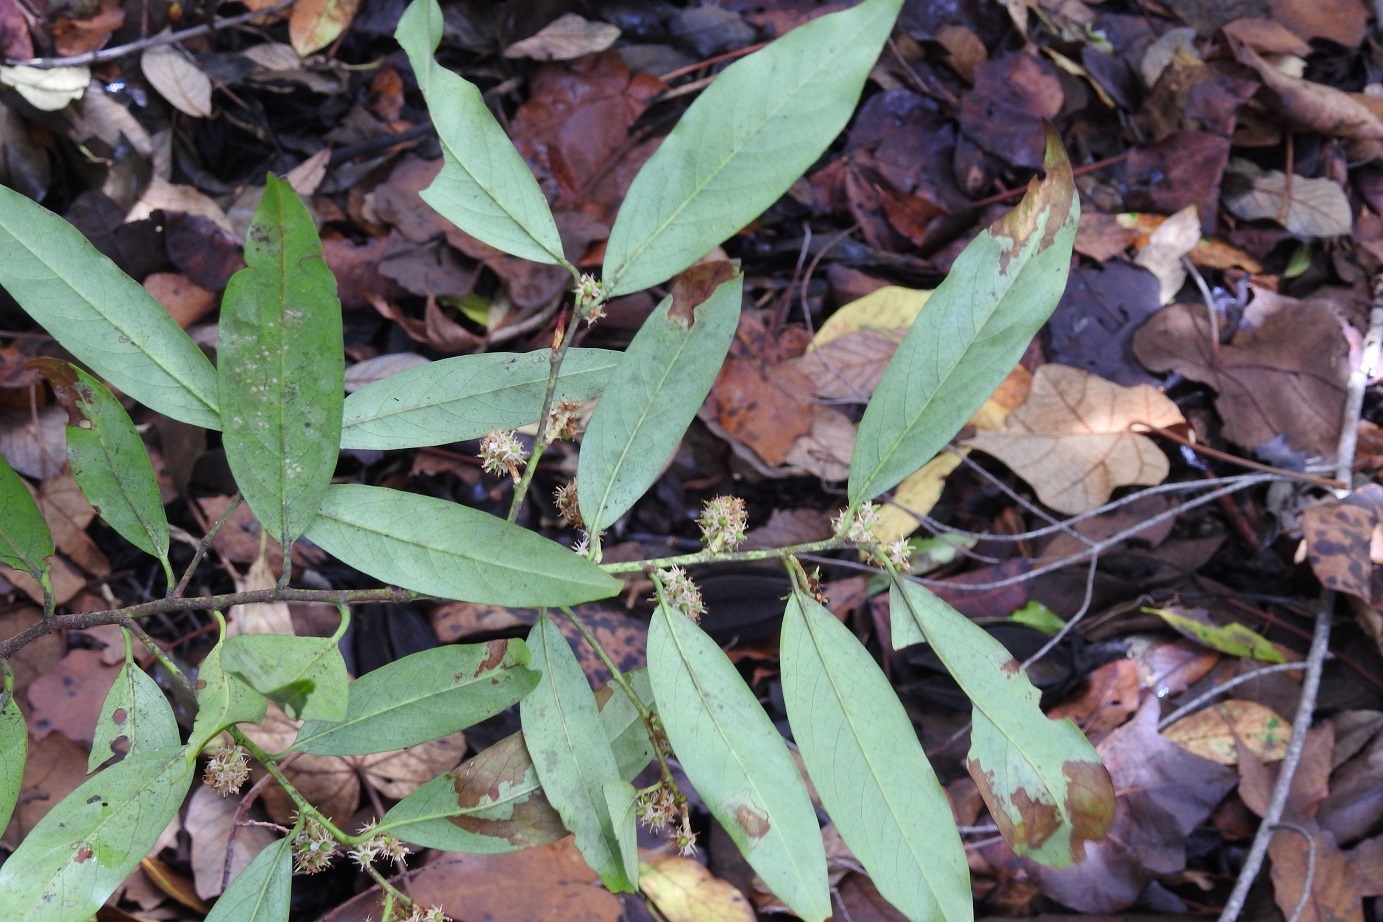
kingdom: Plantae
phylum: Tracheophyta
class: Magnoliopsida
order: Rosales
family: Rosaceae
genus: Prunus
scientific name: Prunus tuberculata
